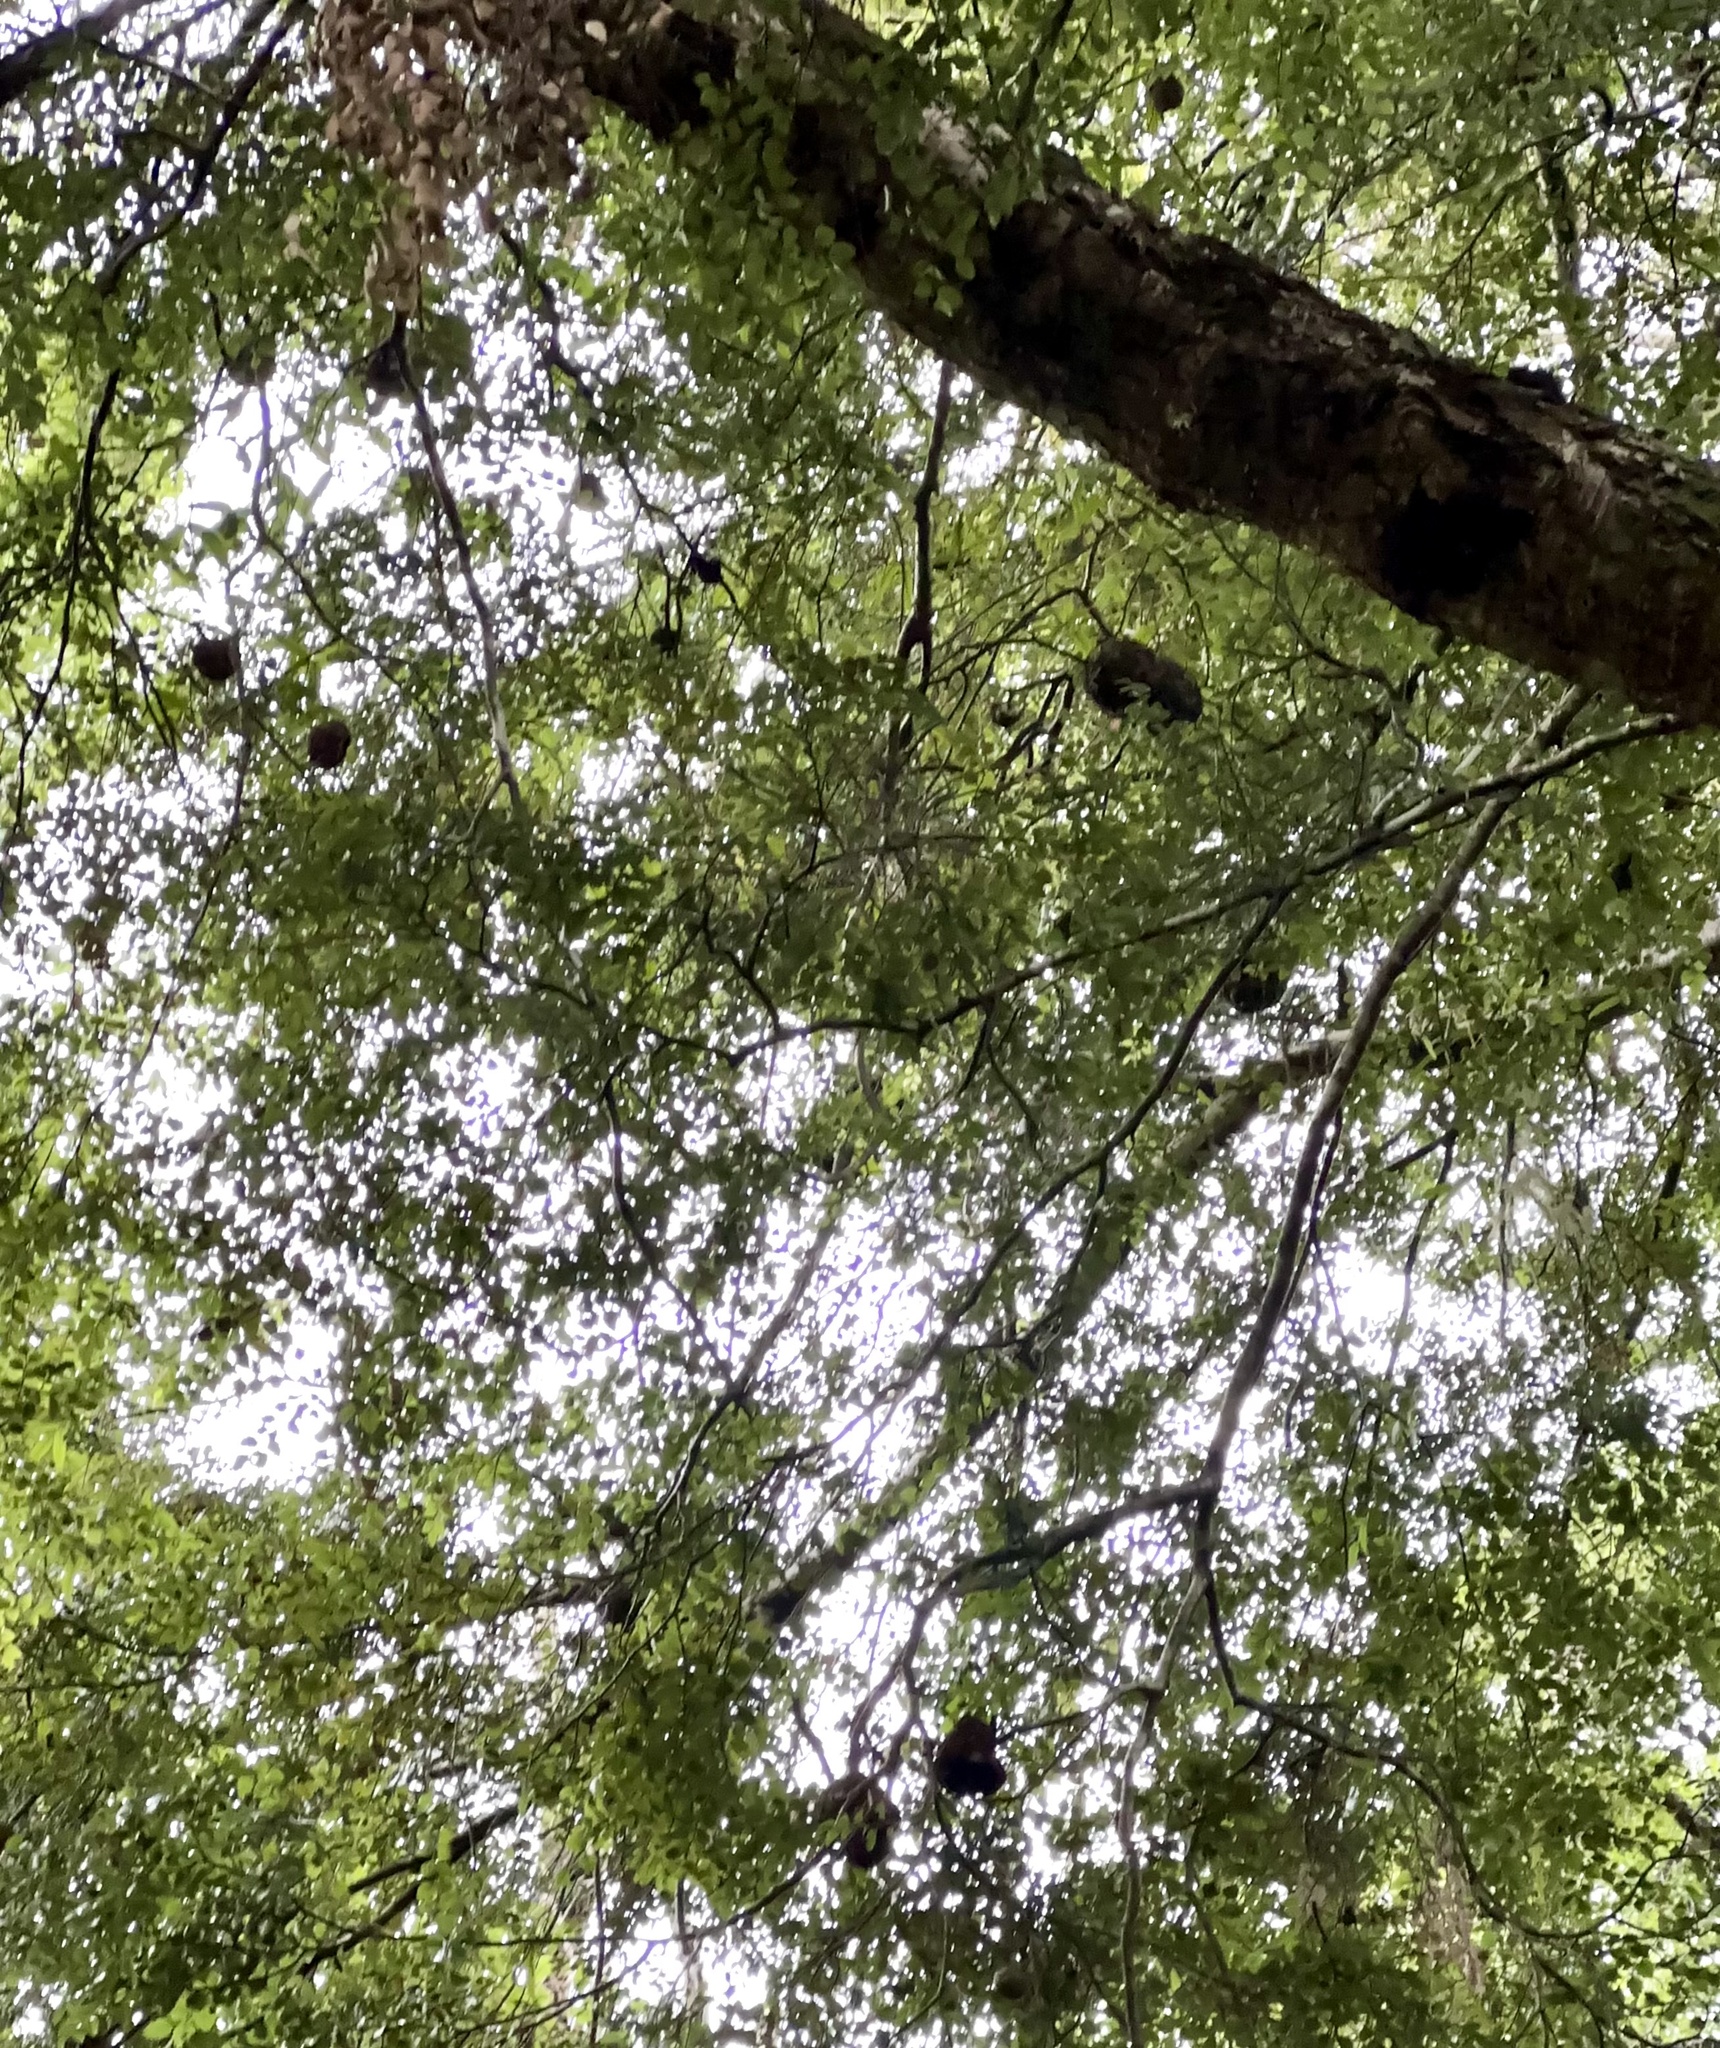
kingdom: Plantae
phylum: Tracheophyta
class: Magnoliopsida
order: Fagales
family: Nothofagaceae
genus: Nothofagus
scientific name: Nothofagus menziesii
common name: Silver beech
